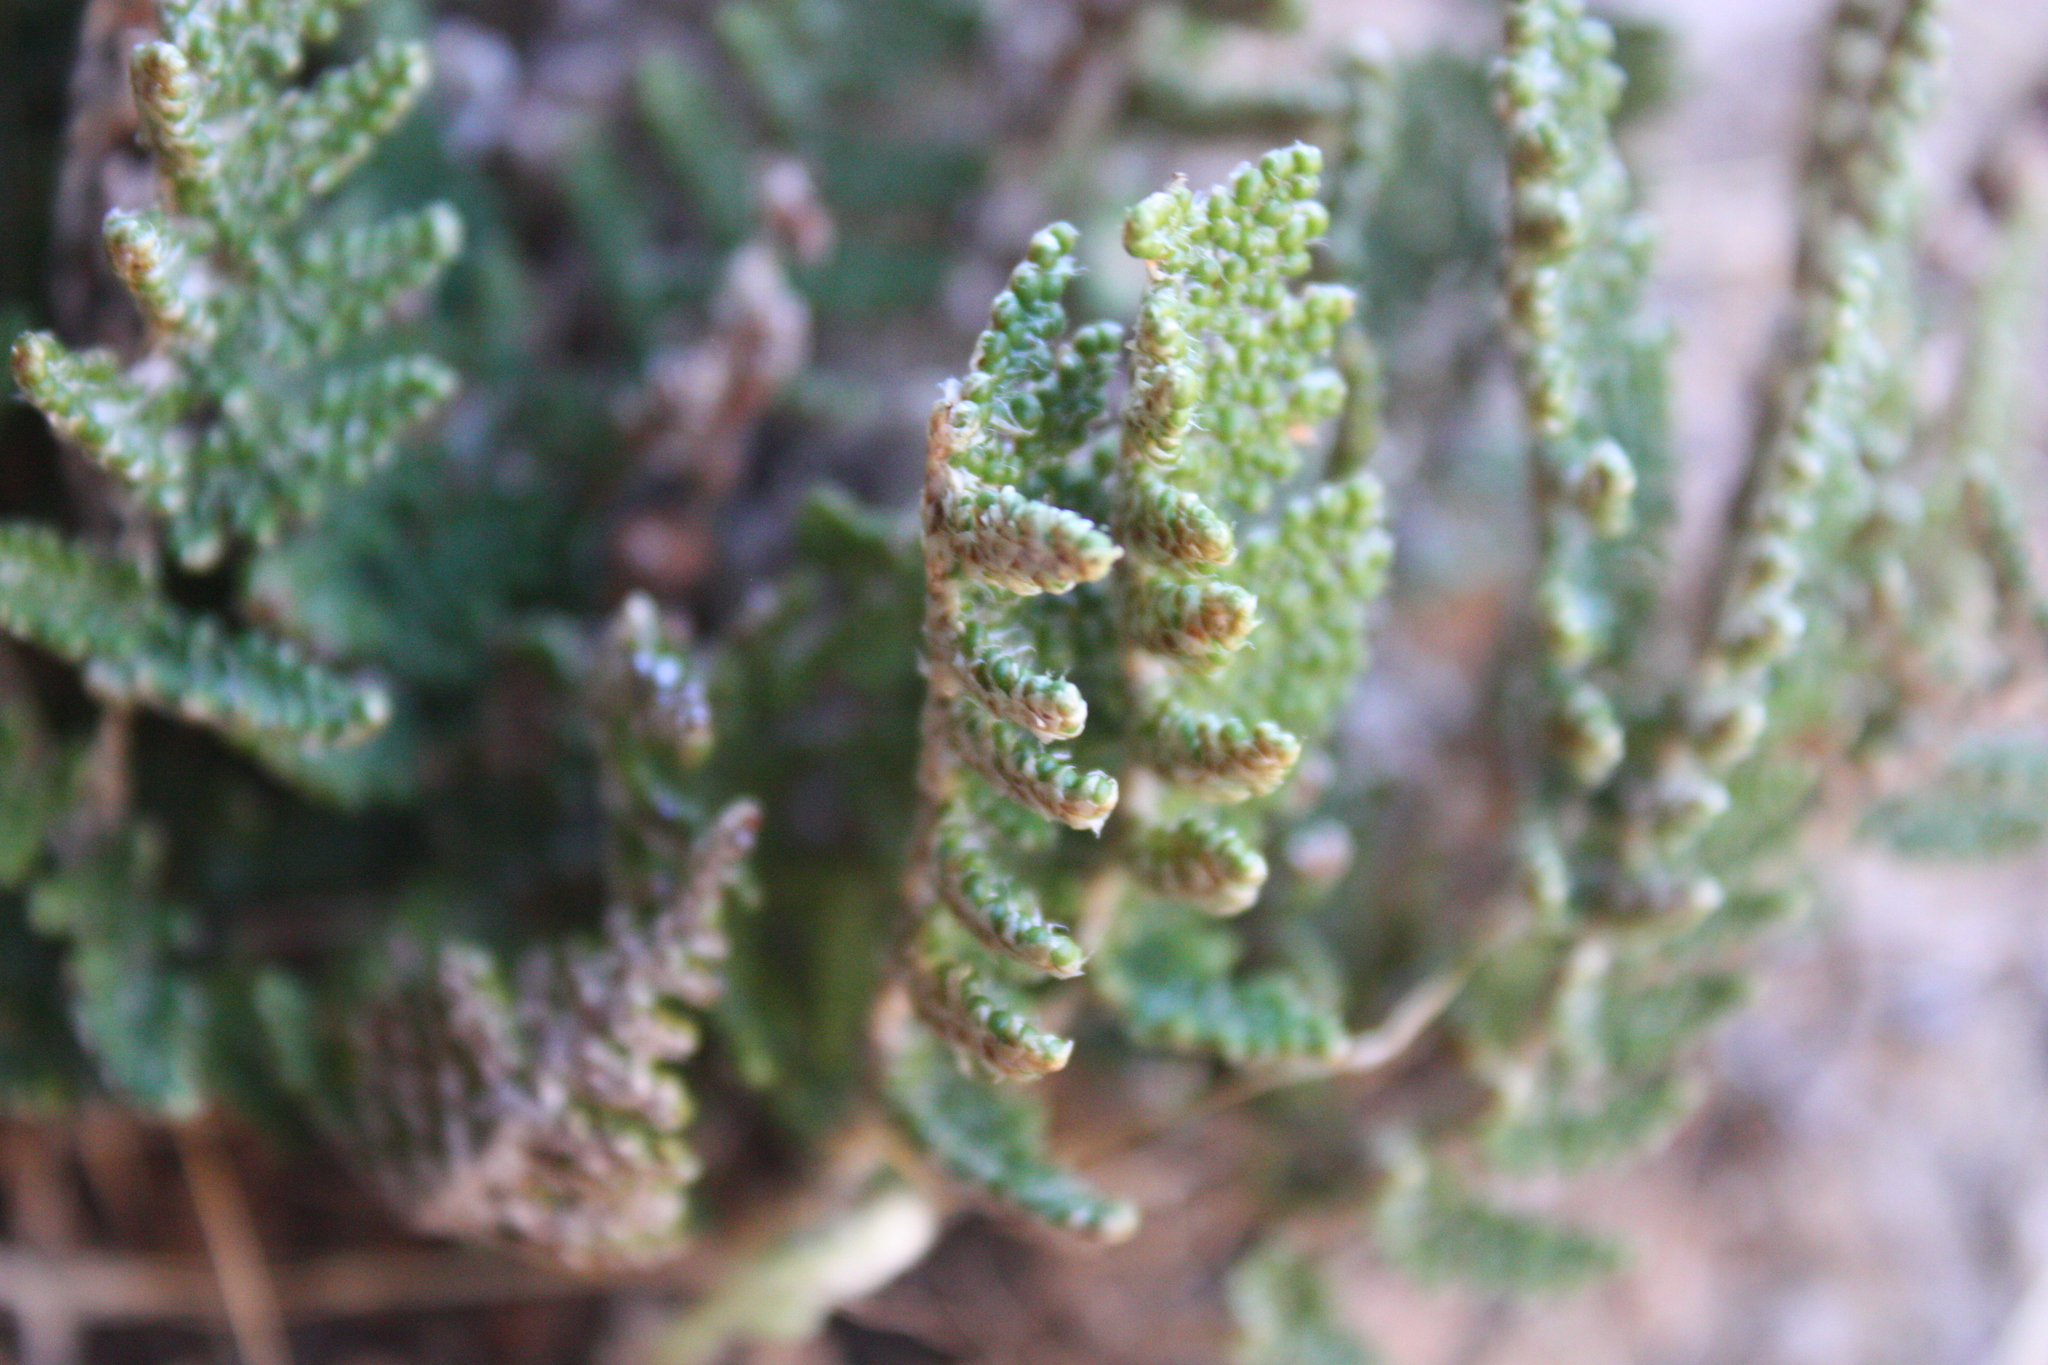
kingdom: Plantae
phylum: Tracheophyta
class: Polypodiopsida
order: Polypodiales
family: Pteridaceae
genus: Myriopteris
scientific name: Myriopteris covillei
